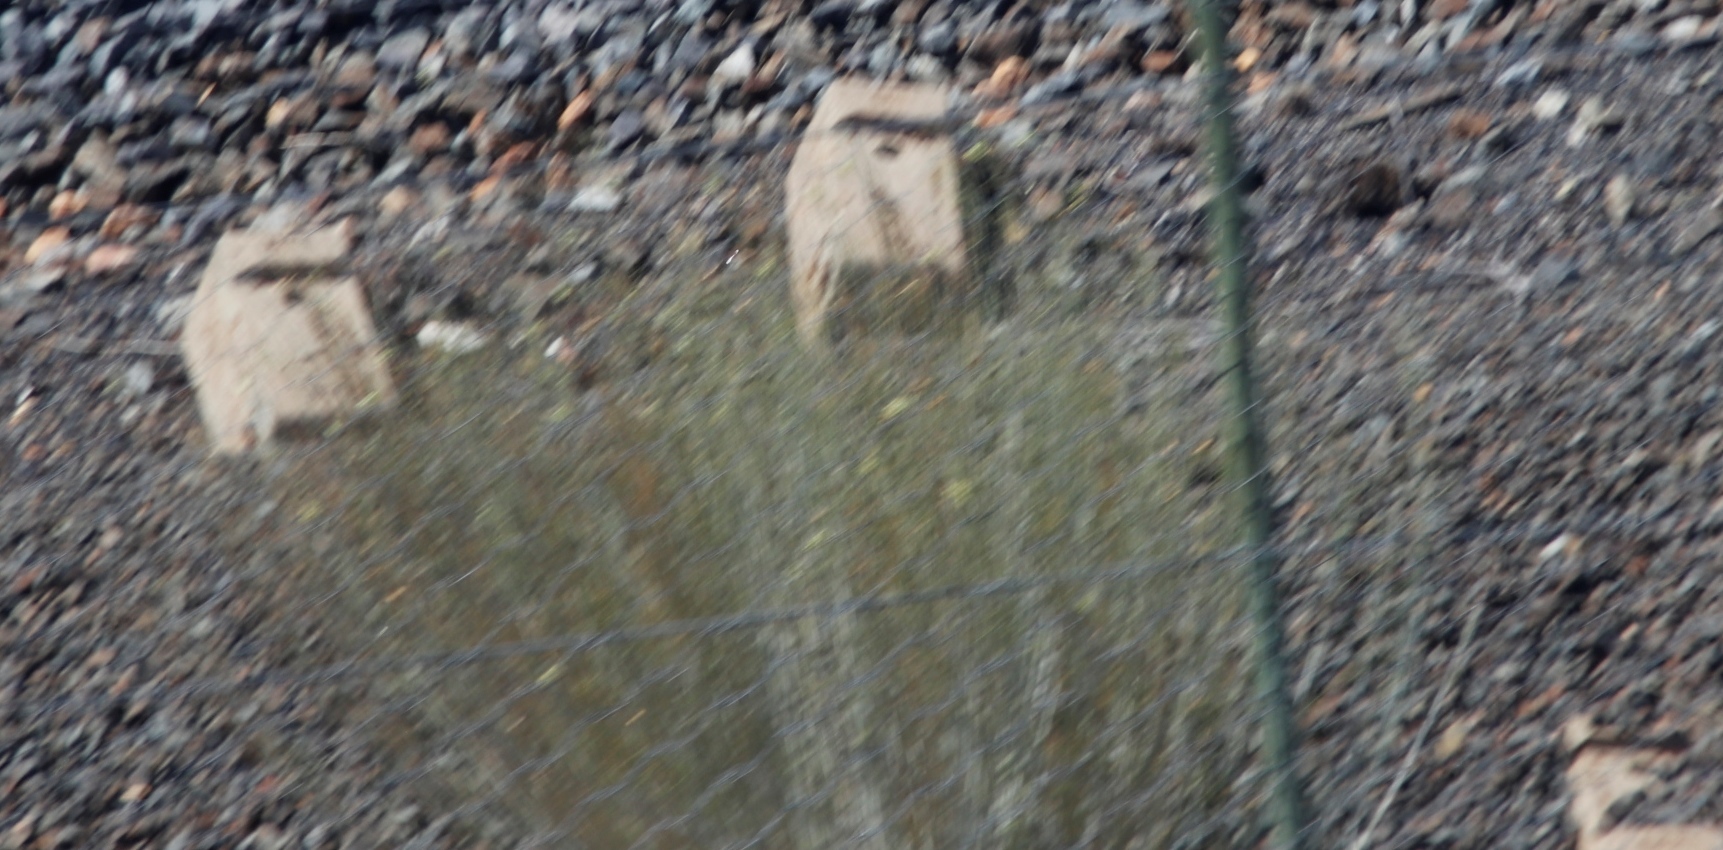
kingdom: Plantae
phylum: Tracheophyta
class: Magnoliopsida
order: Gentianales
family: Apocynaceae
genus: Gomphocarpus
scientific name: Gomphocarpus filiformis
